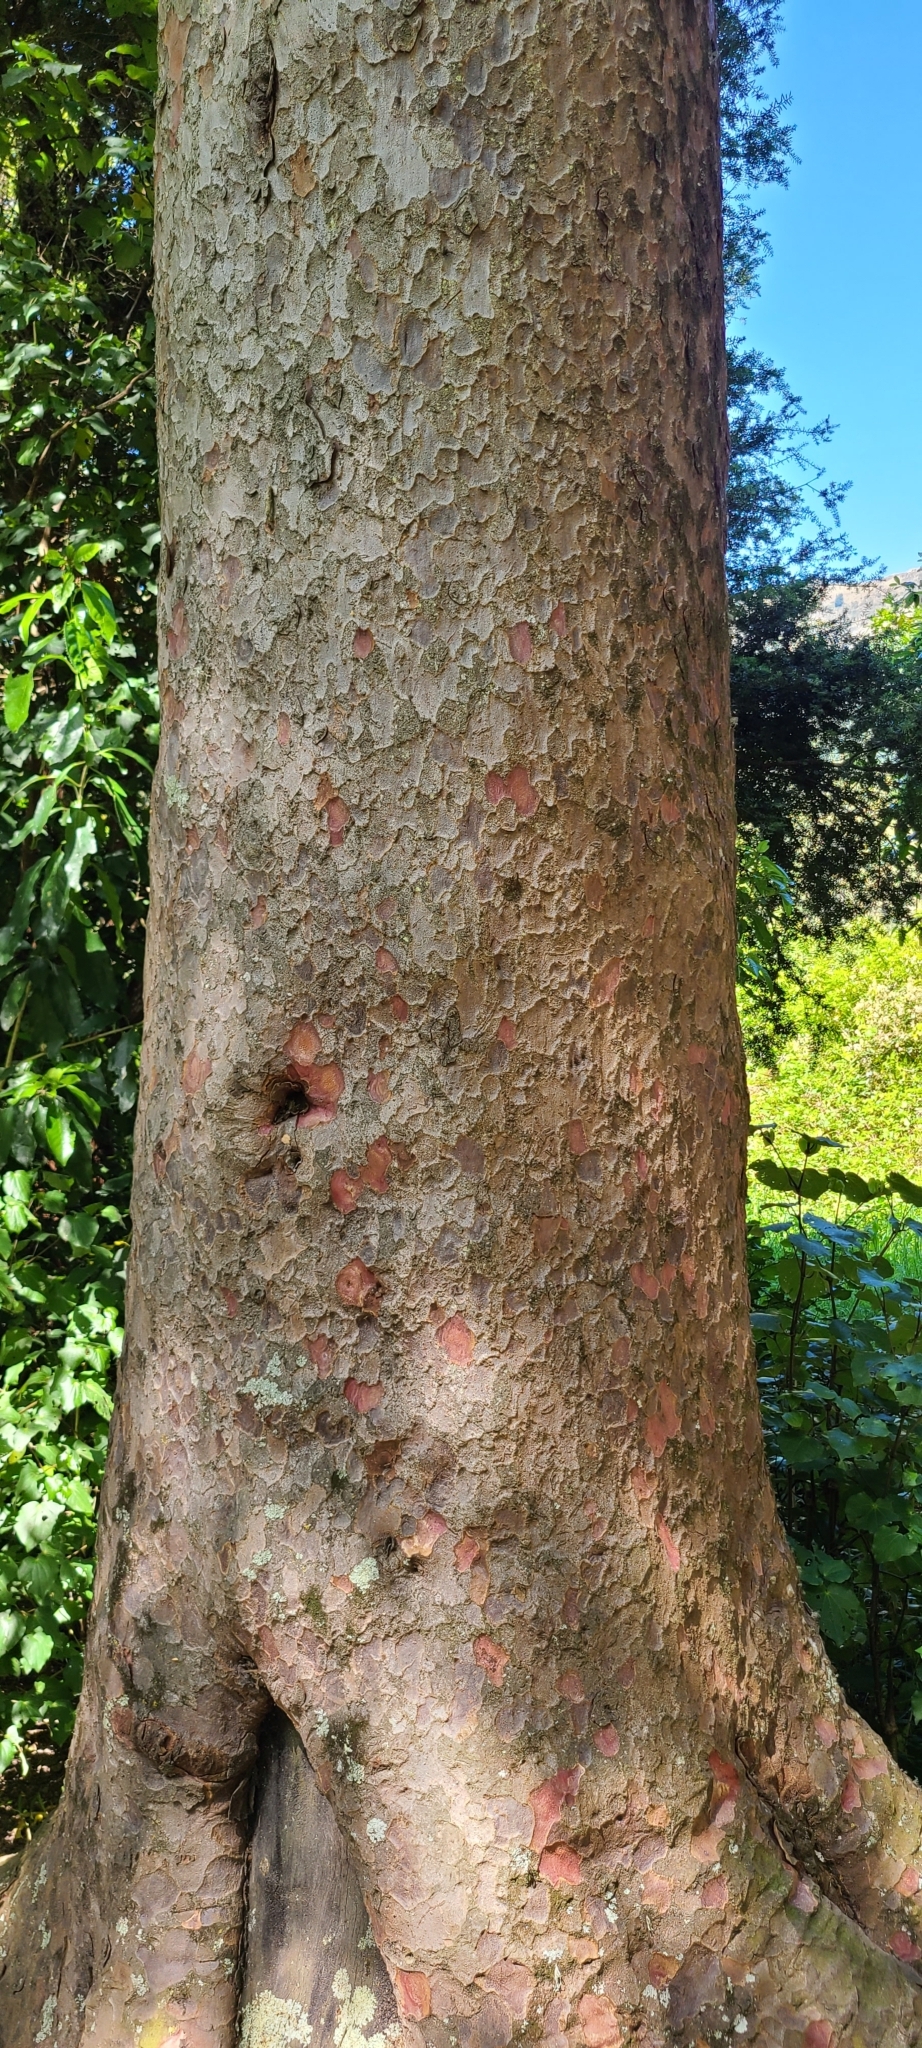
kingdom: Plantae
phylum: Tracheophyta
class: Pinopsida
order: Pinales
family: Podocarpaceae
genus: Prumnopitys
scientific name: Prumnopitys taxifolia
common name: Matai
